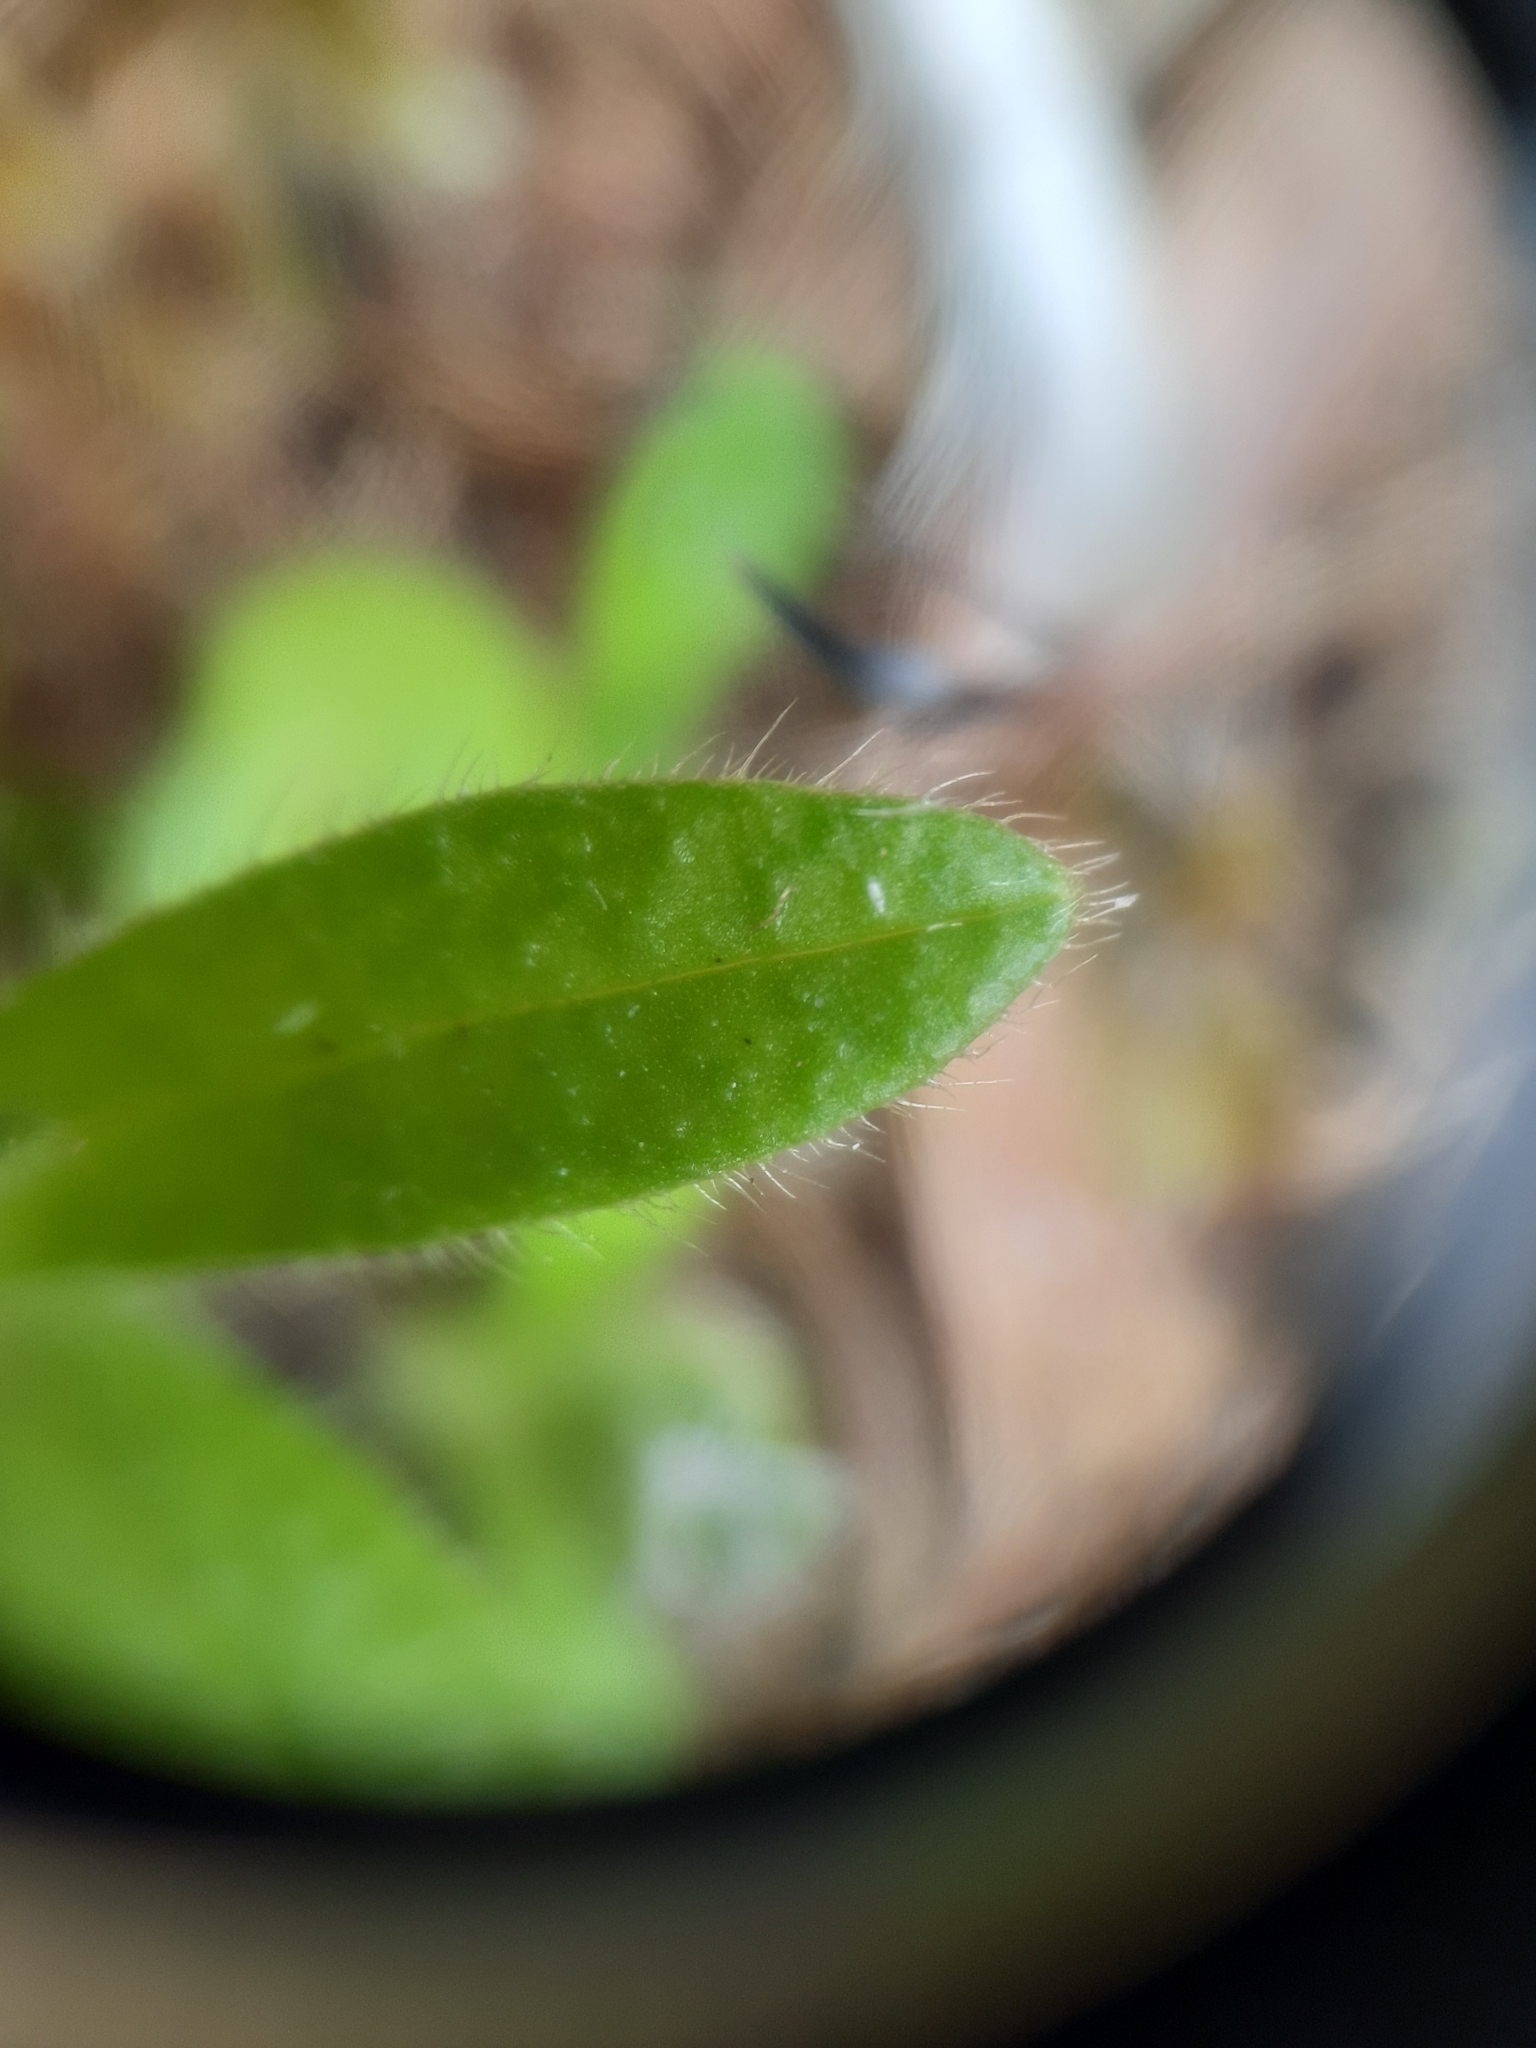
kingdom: Plantae
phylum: Tracheophyta
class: Magnoliopsida
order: Caryophyllales
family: Caryophyllaceae
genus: Cerastium
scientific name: Cerastium fontanum
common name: Common mouse-ear
